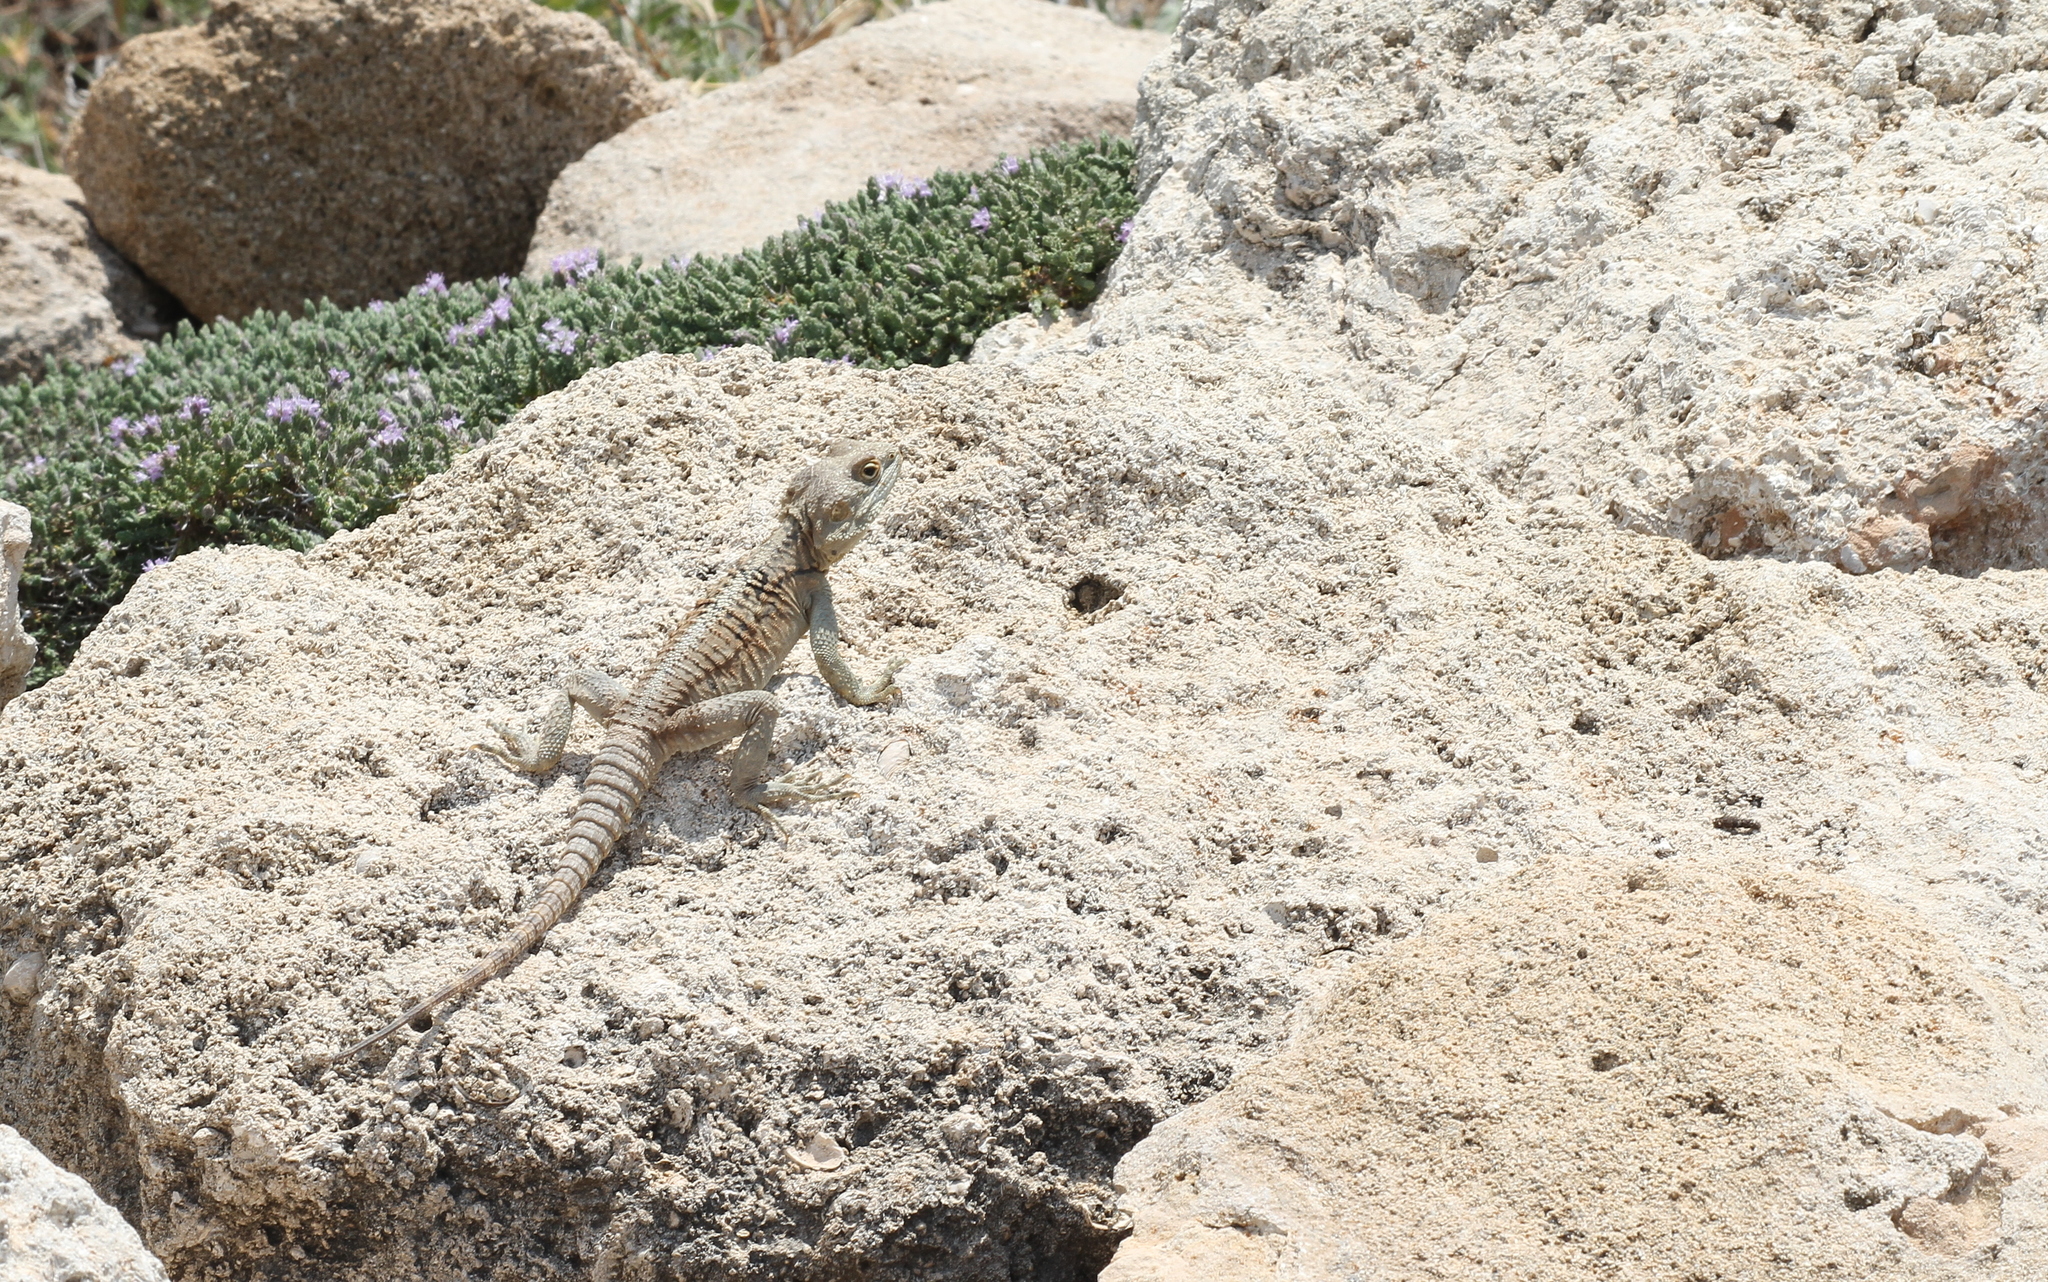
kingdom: Animalia
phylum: Chordata
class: Squamata
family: Agamidae
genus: Laudakia
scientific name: Laudakia
